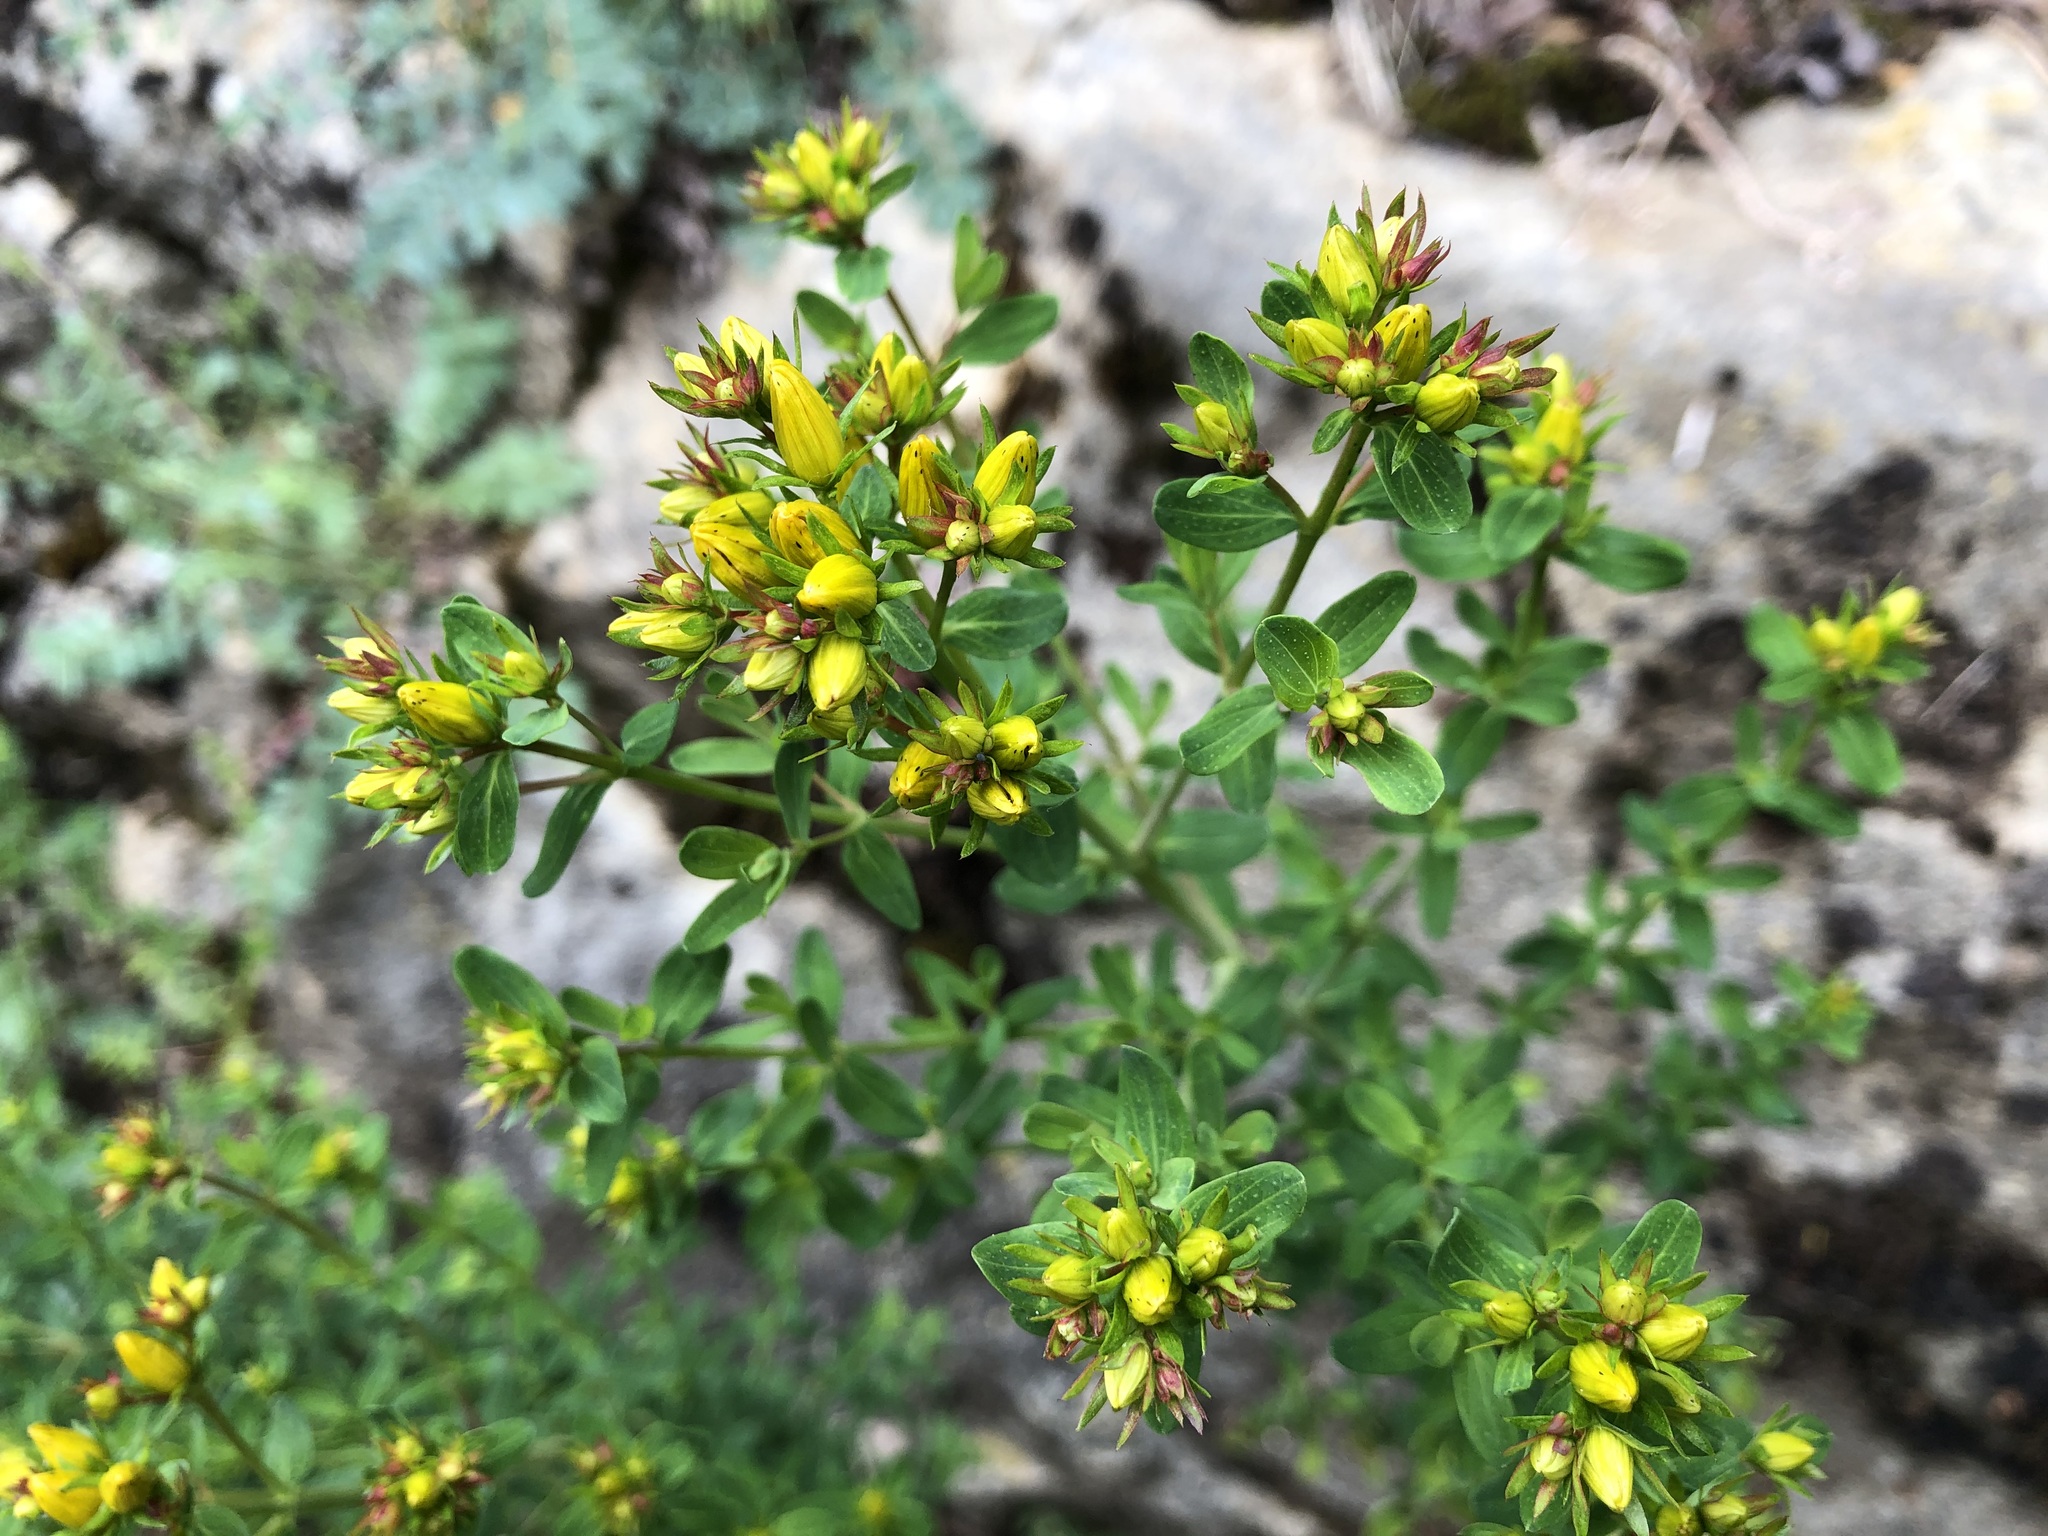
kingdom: Plantae
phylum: Tracheophyta
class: Magnoliopsida
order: Malpighiales
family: Hypericaceae
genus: Hypericum
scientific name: Hypericum perforatum
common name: Common st. johnswort
